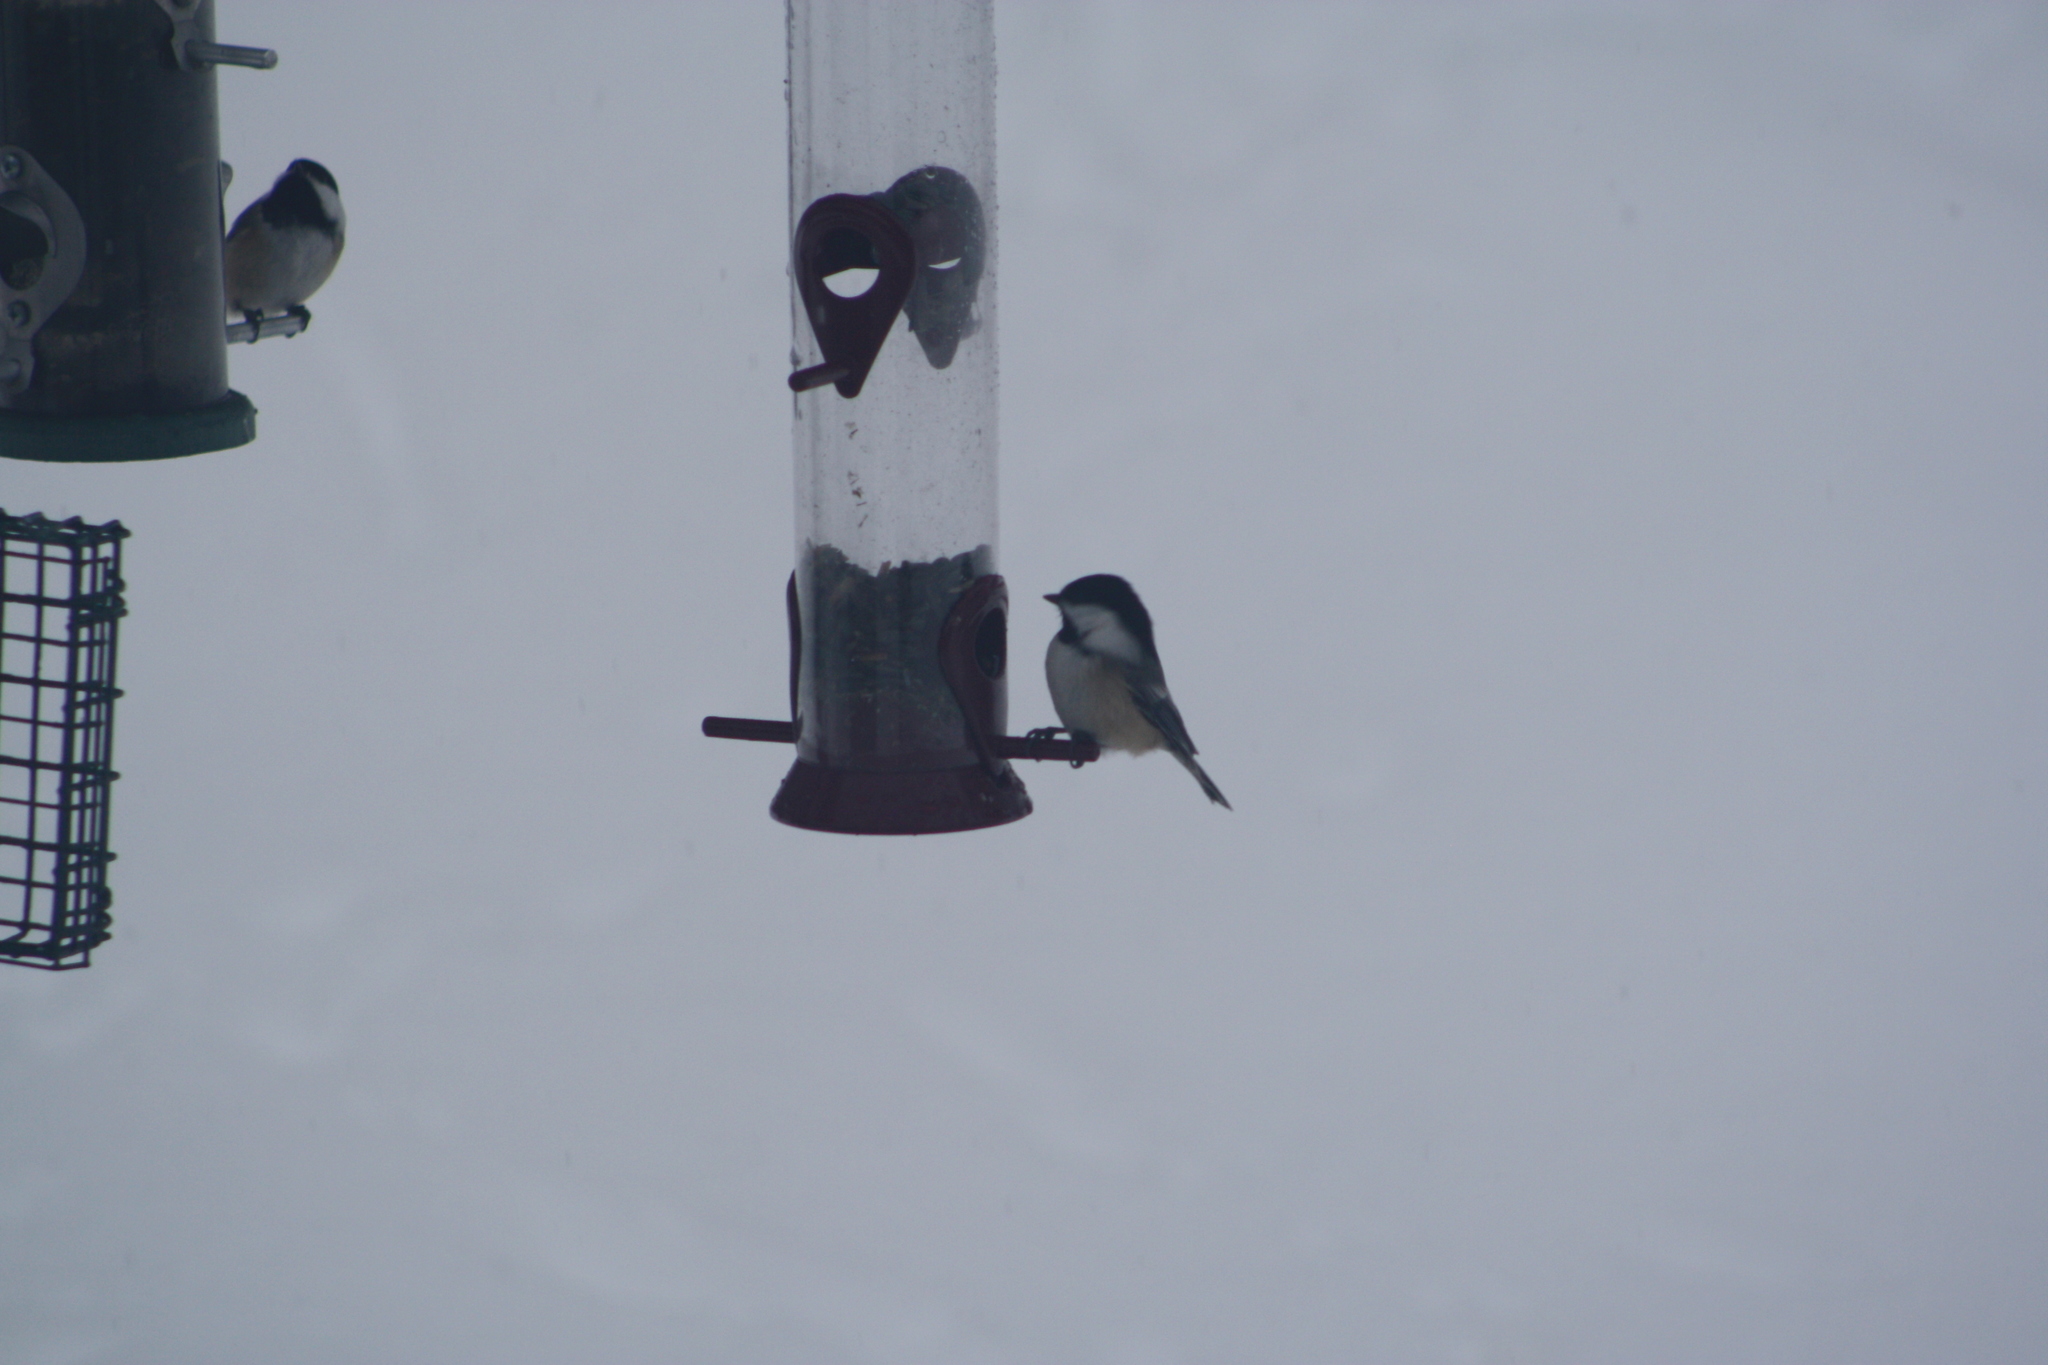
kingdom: Animalia
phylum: Chordata
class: Aves
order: Passeriformes
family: Paridae
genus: Poecile
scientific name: Poecile atricapillus
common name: Black-capped chickadee
